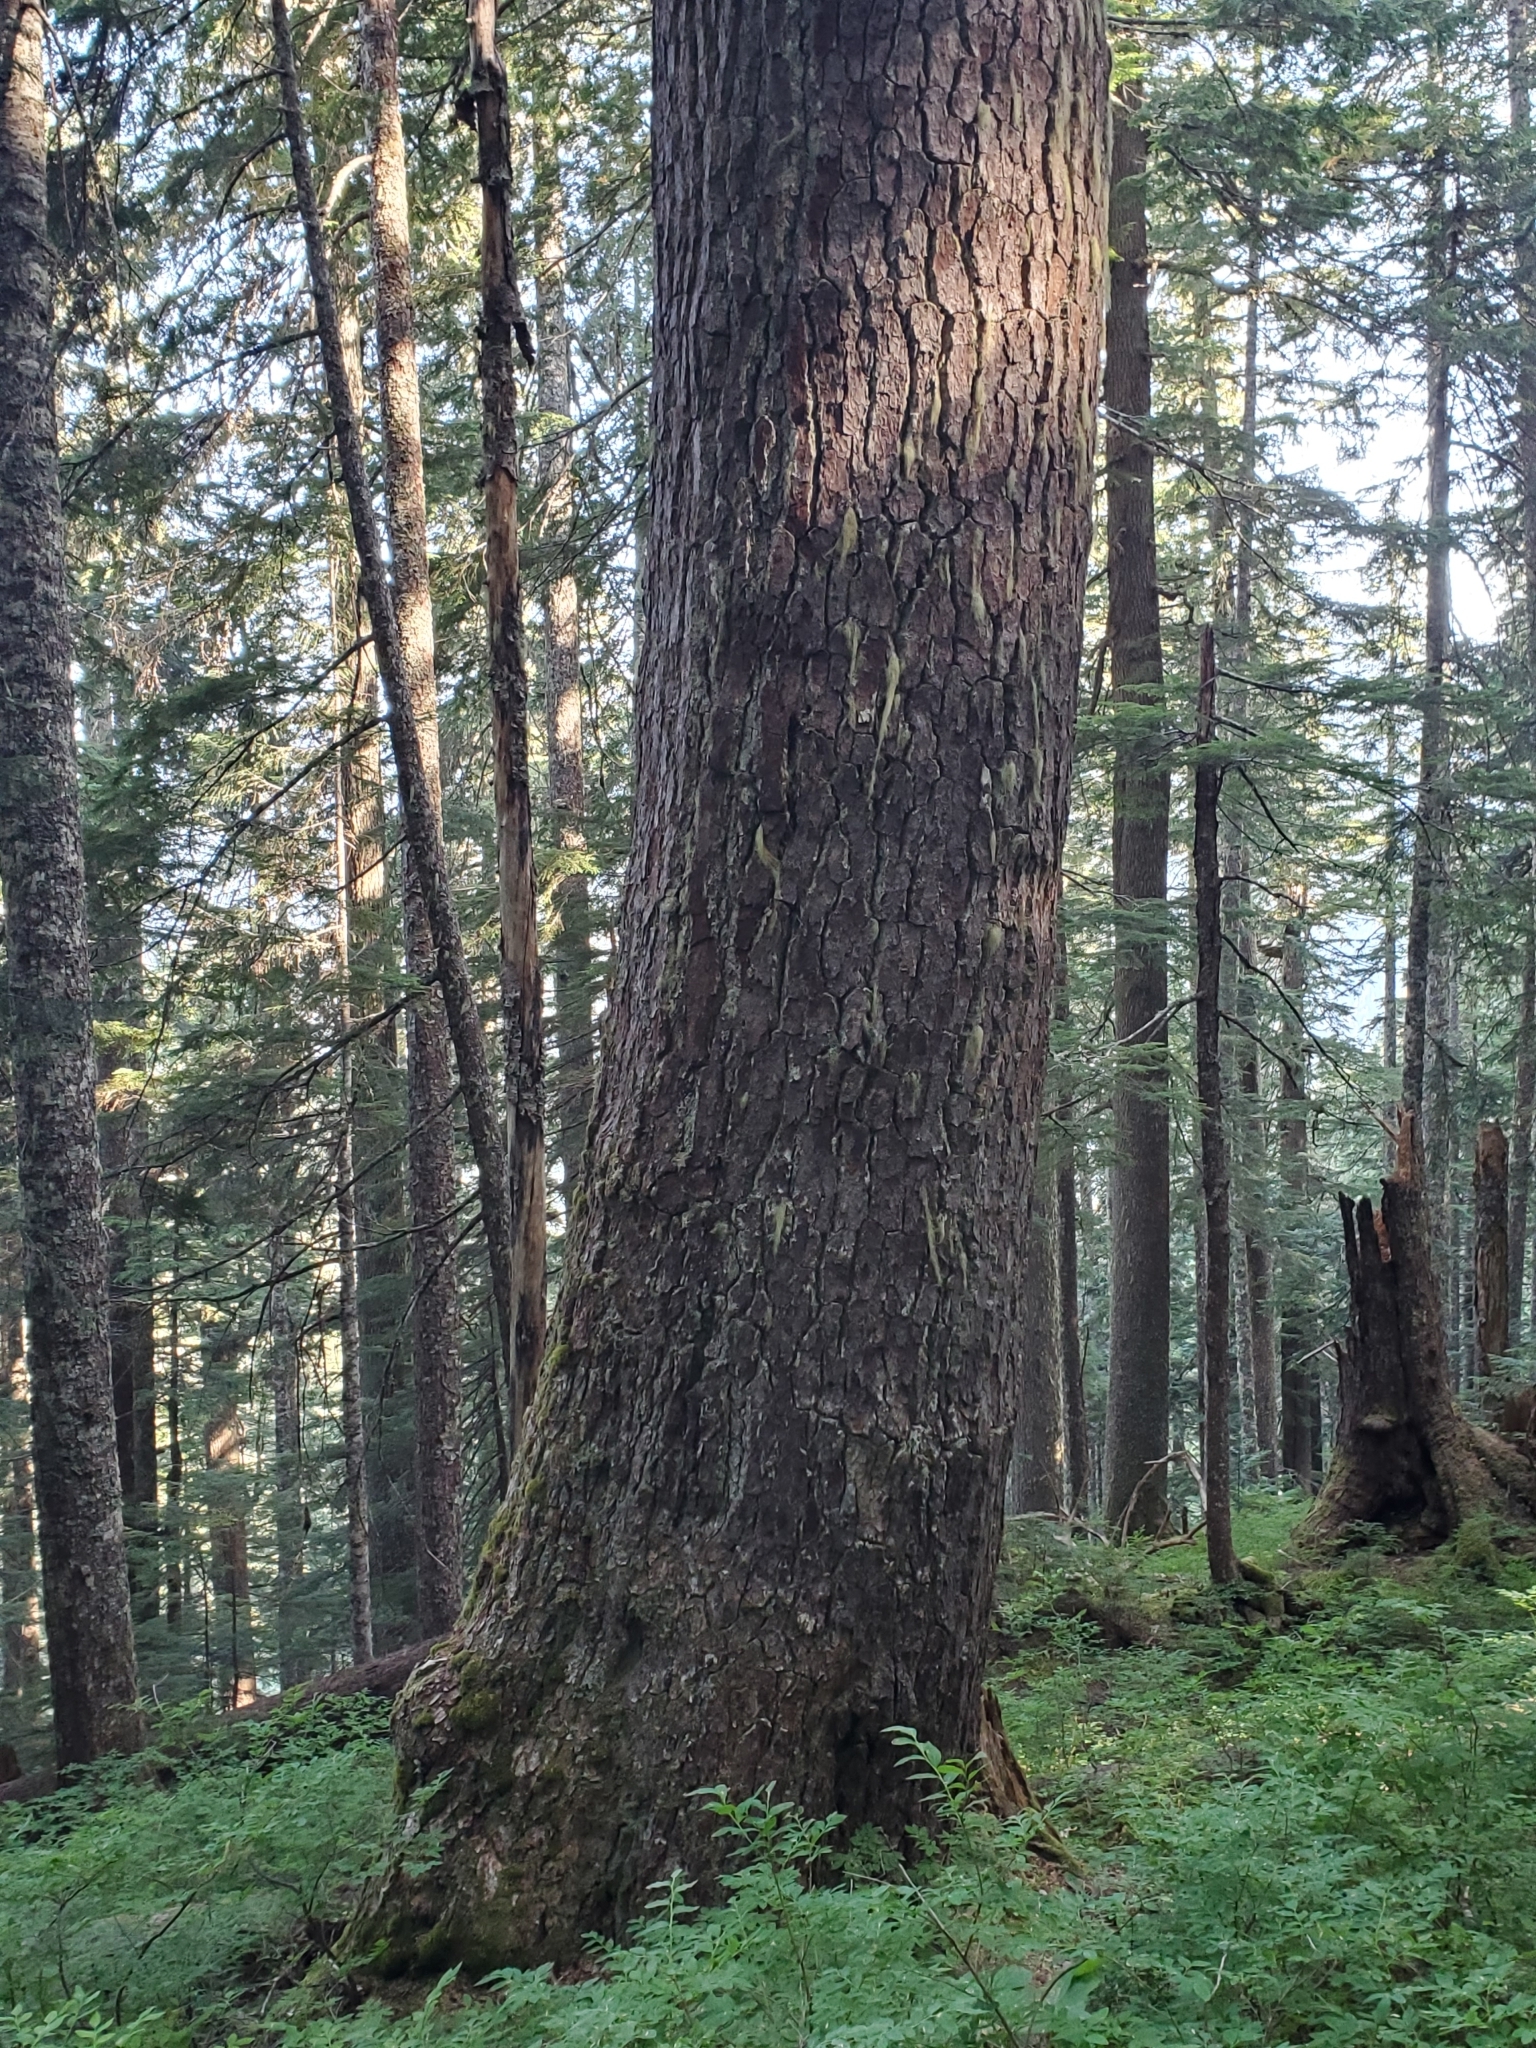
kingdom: Plantae
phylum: Tracheophyta
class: Pinopsida
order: Pinales
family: Pinaceae
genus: Tsuga
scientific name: Tsuga heterophylla
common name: Western hemlock
